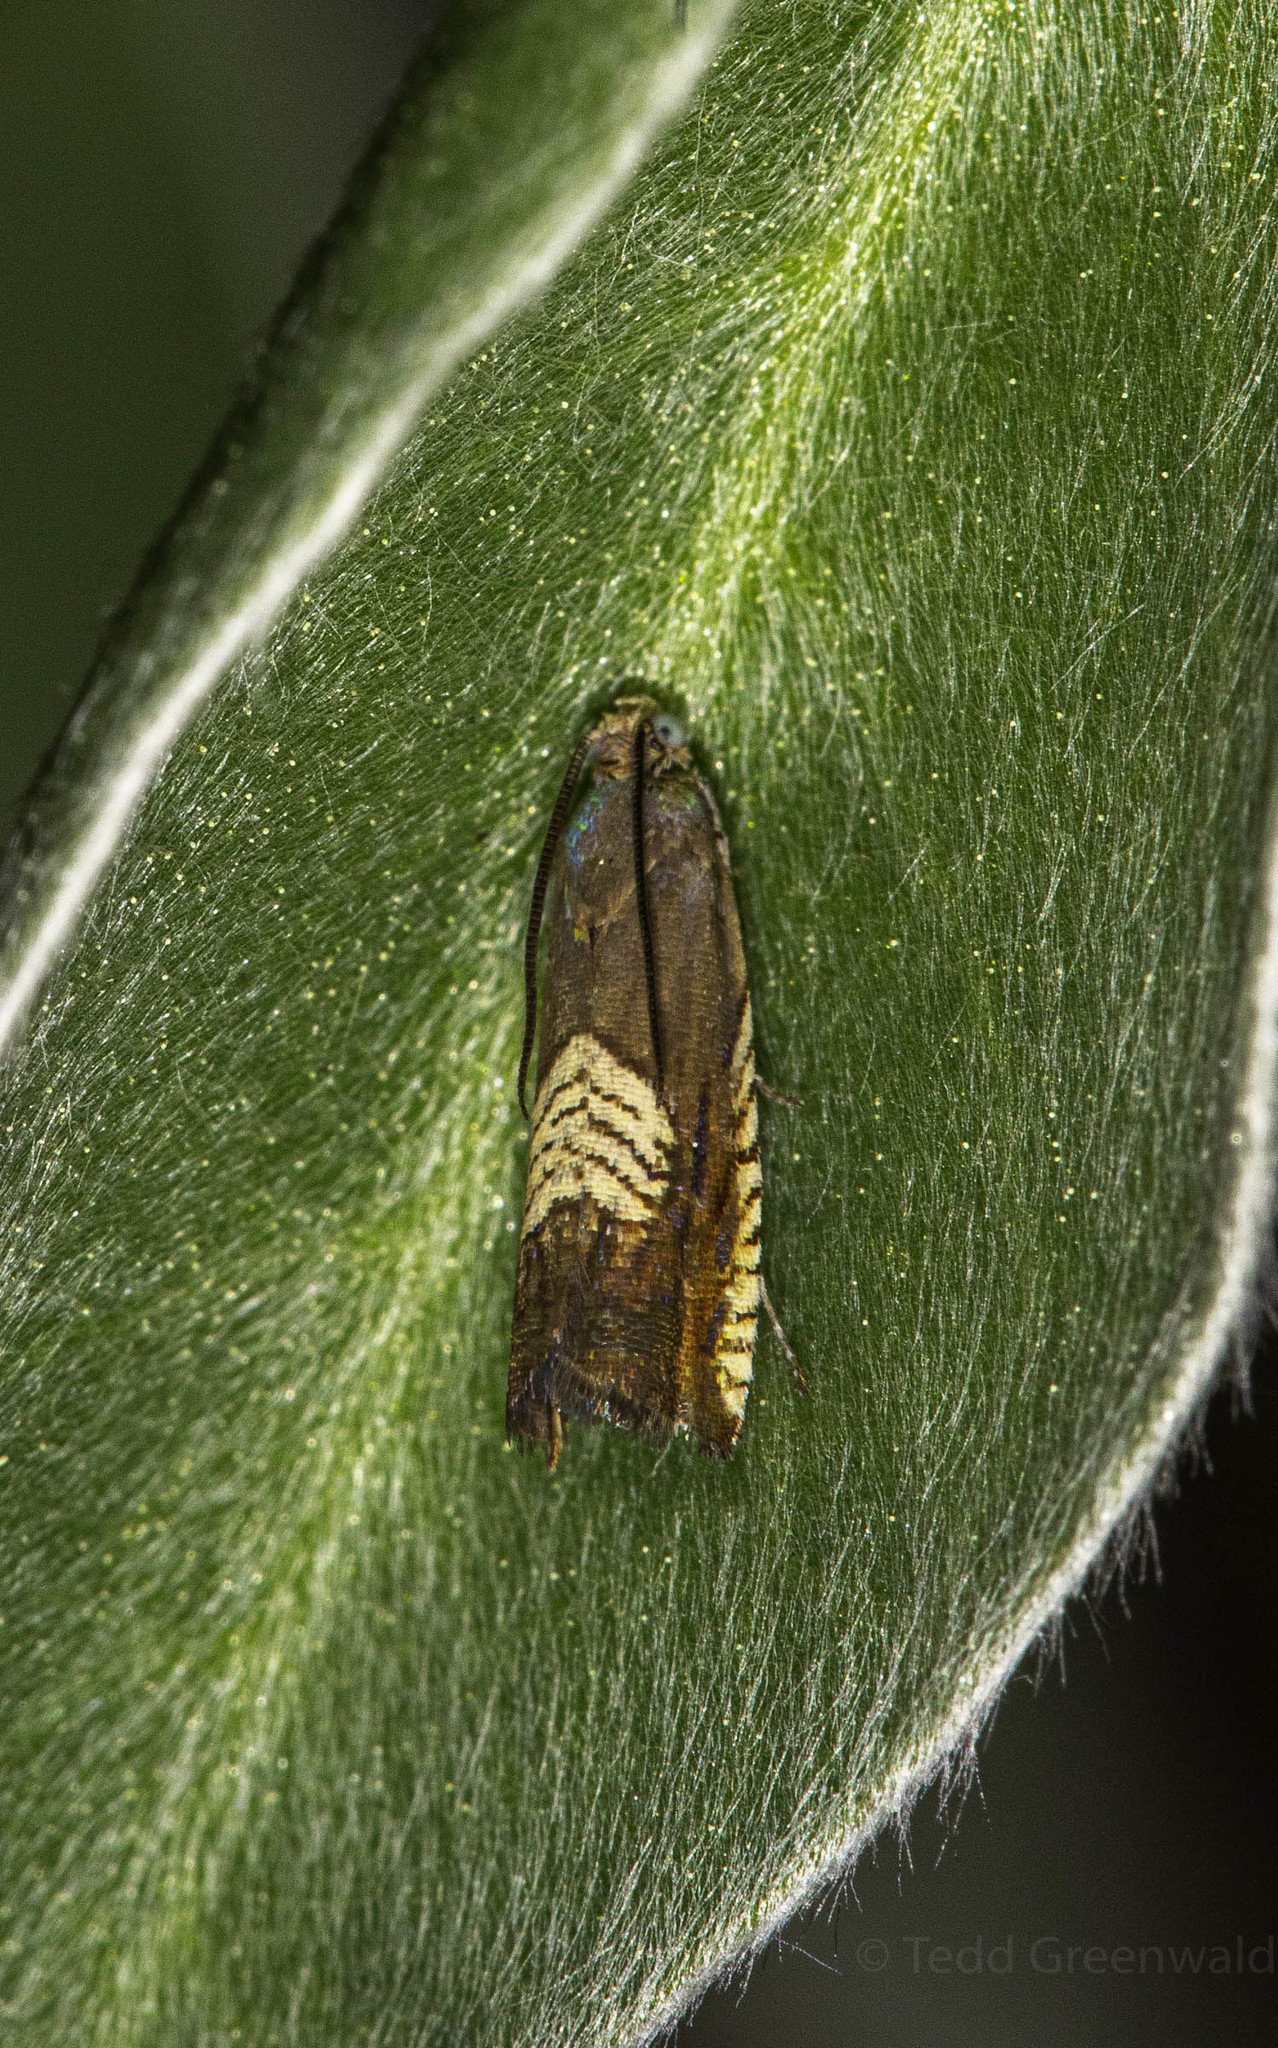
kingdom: Animalia
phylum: Arthropoda
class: Insecta
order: Lepidoptera
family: Tortricidae
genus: Grapholita
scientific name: Grapholita tristrigana
